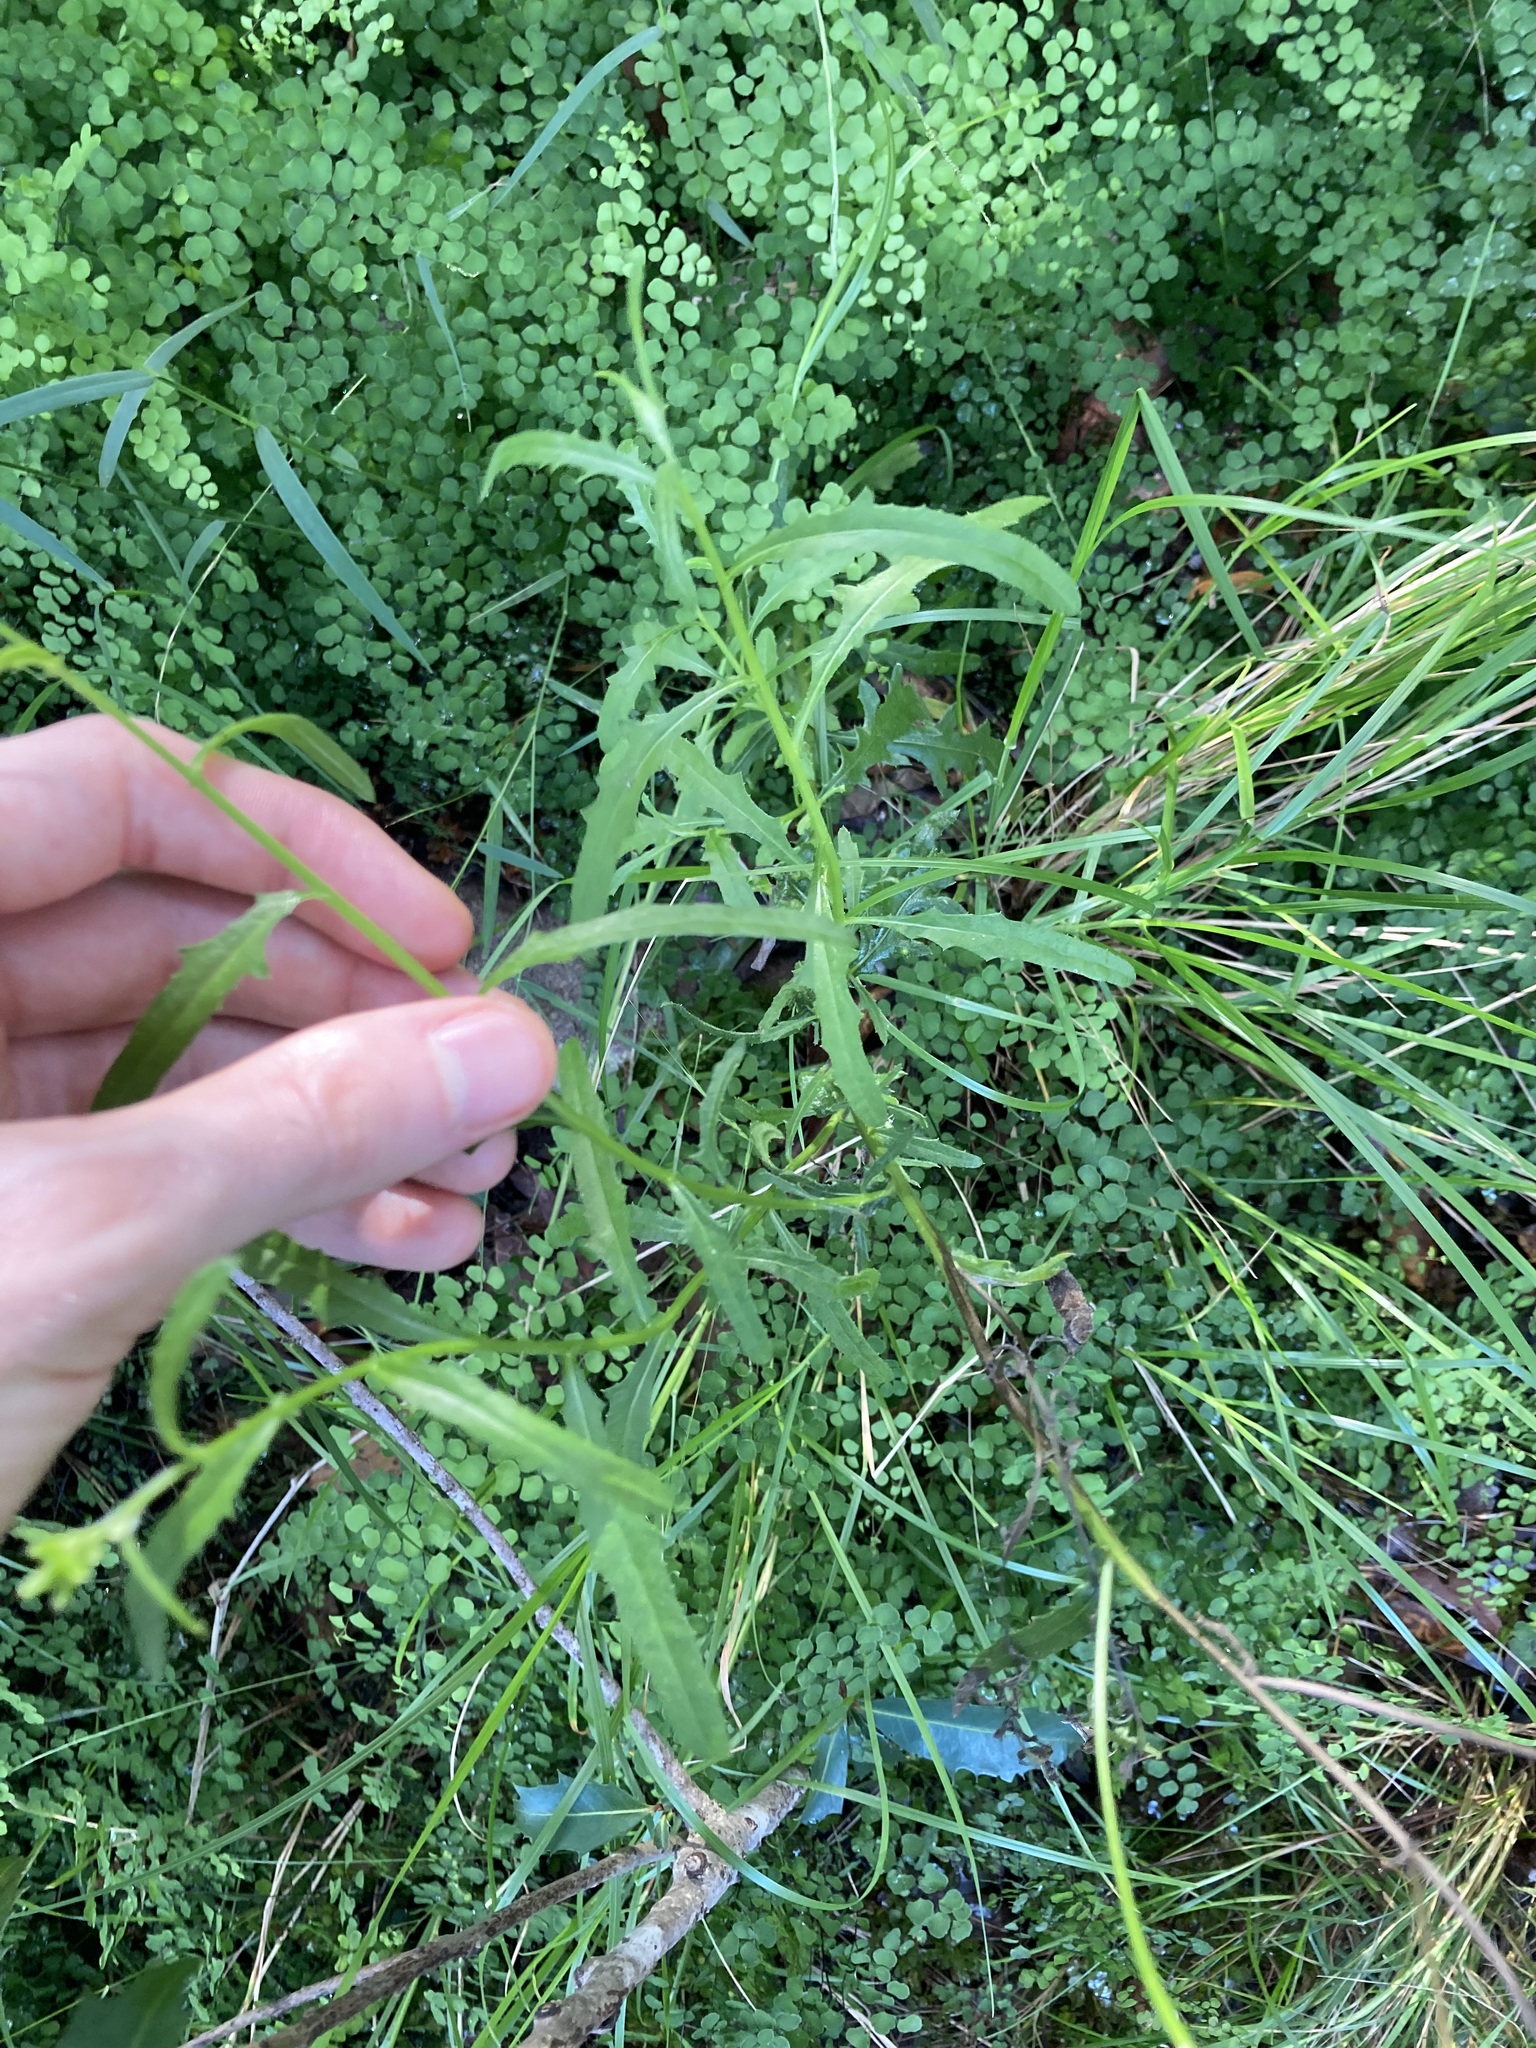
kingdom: Plantae
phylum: Tracheophyta
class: Magnoliopsida
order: Asterales
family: Asteraceae
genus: Senecio
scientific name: Senecio hispidulus
